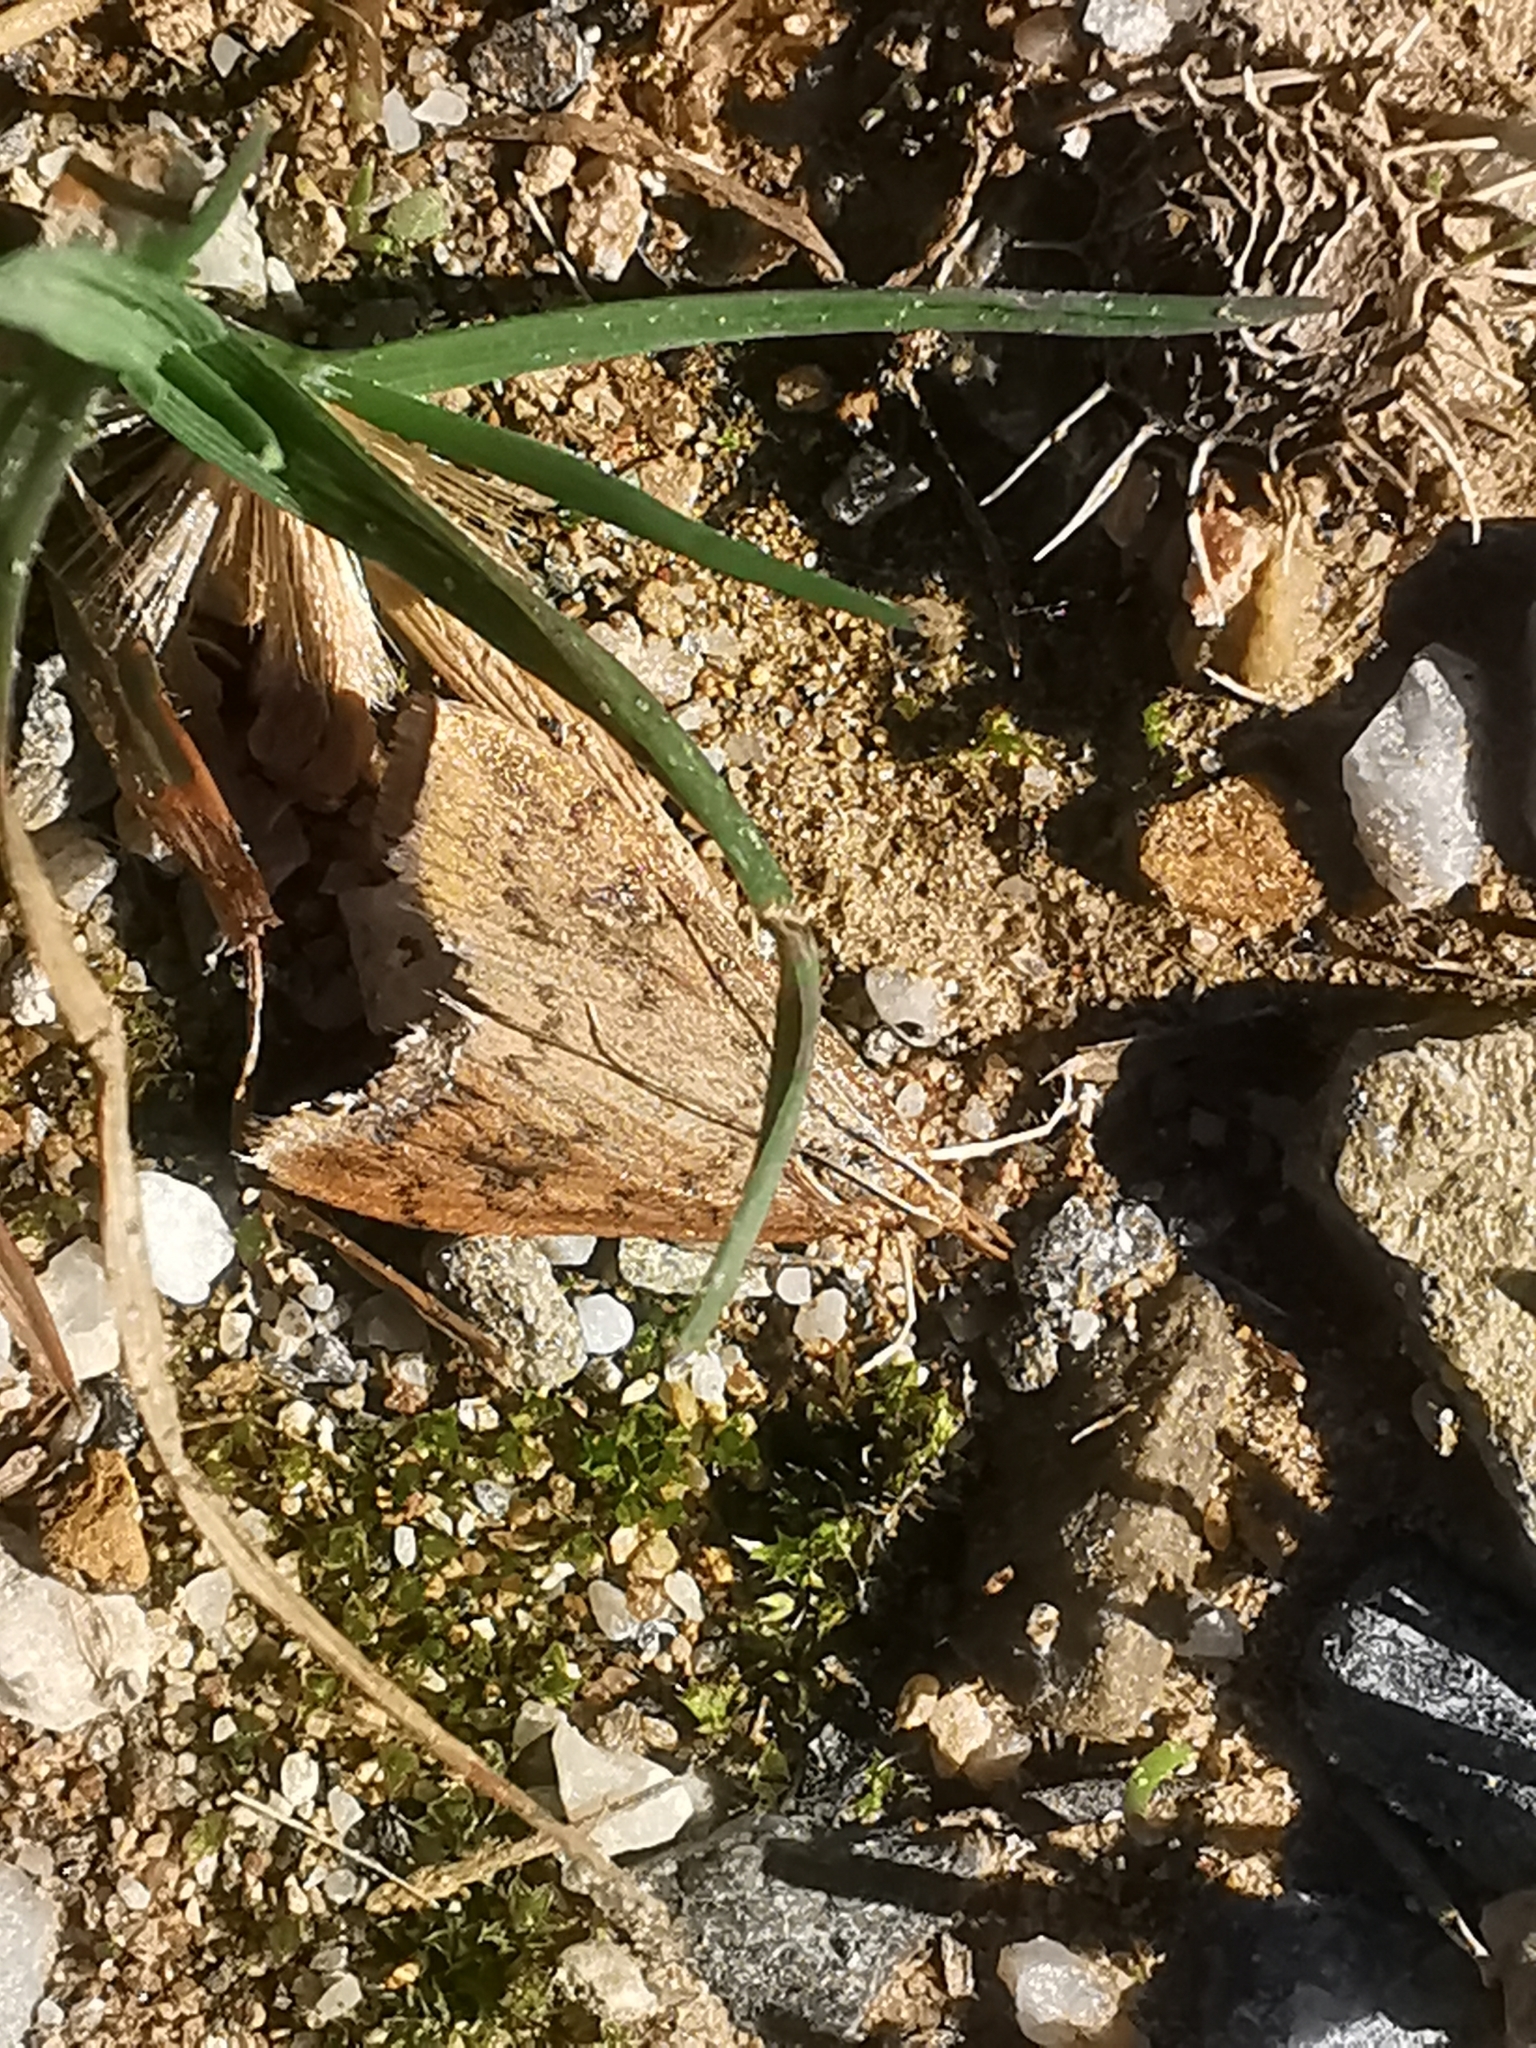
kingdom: Animalia
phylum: Arthropoda
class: Insecta
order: Lepidoptera
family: Crambidae
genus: Udea
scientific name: Udea ferrugalis
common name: Rusty dot
